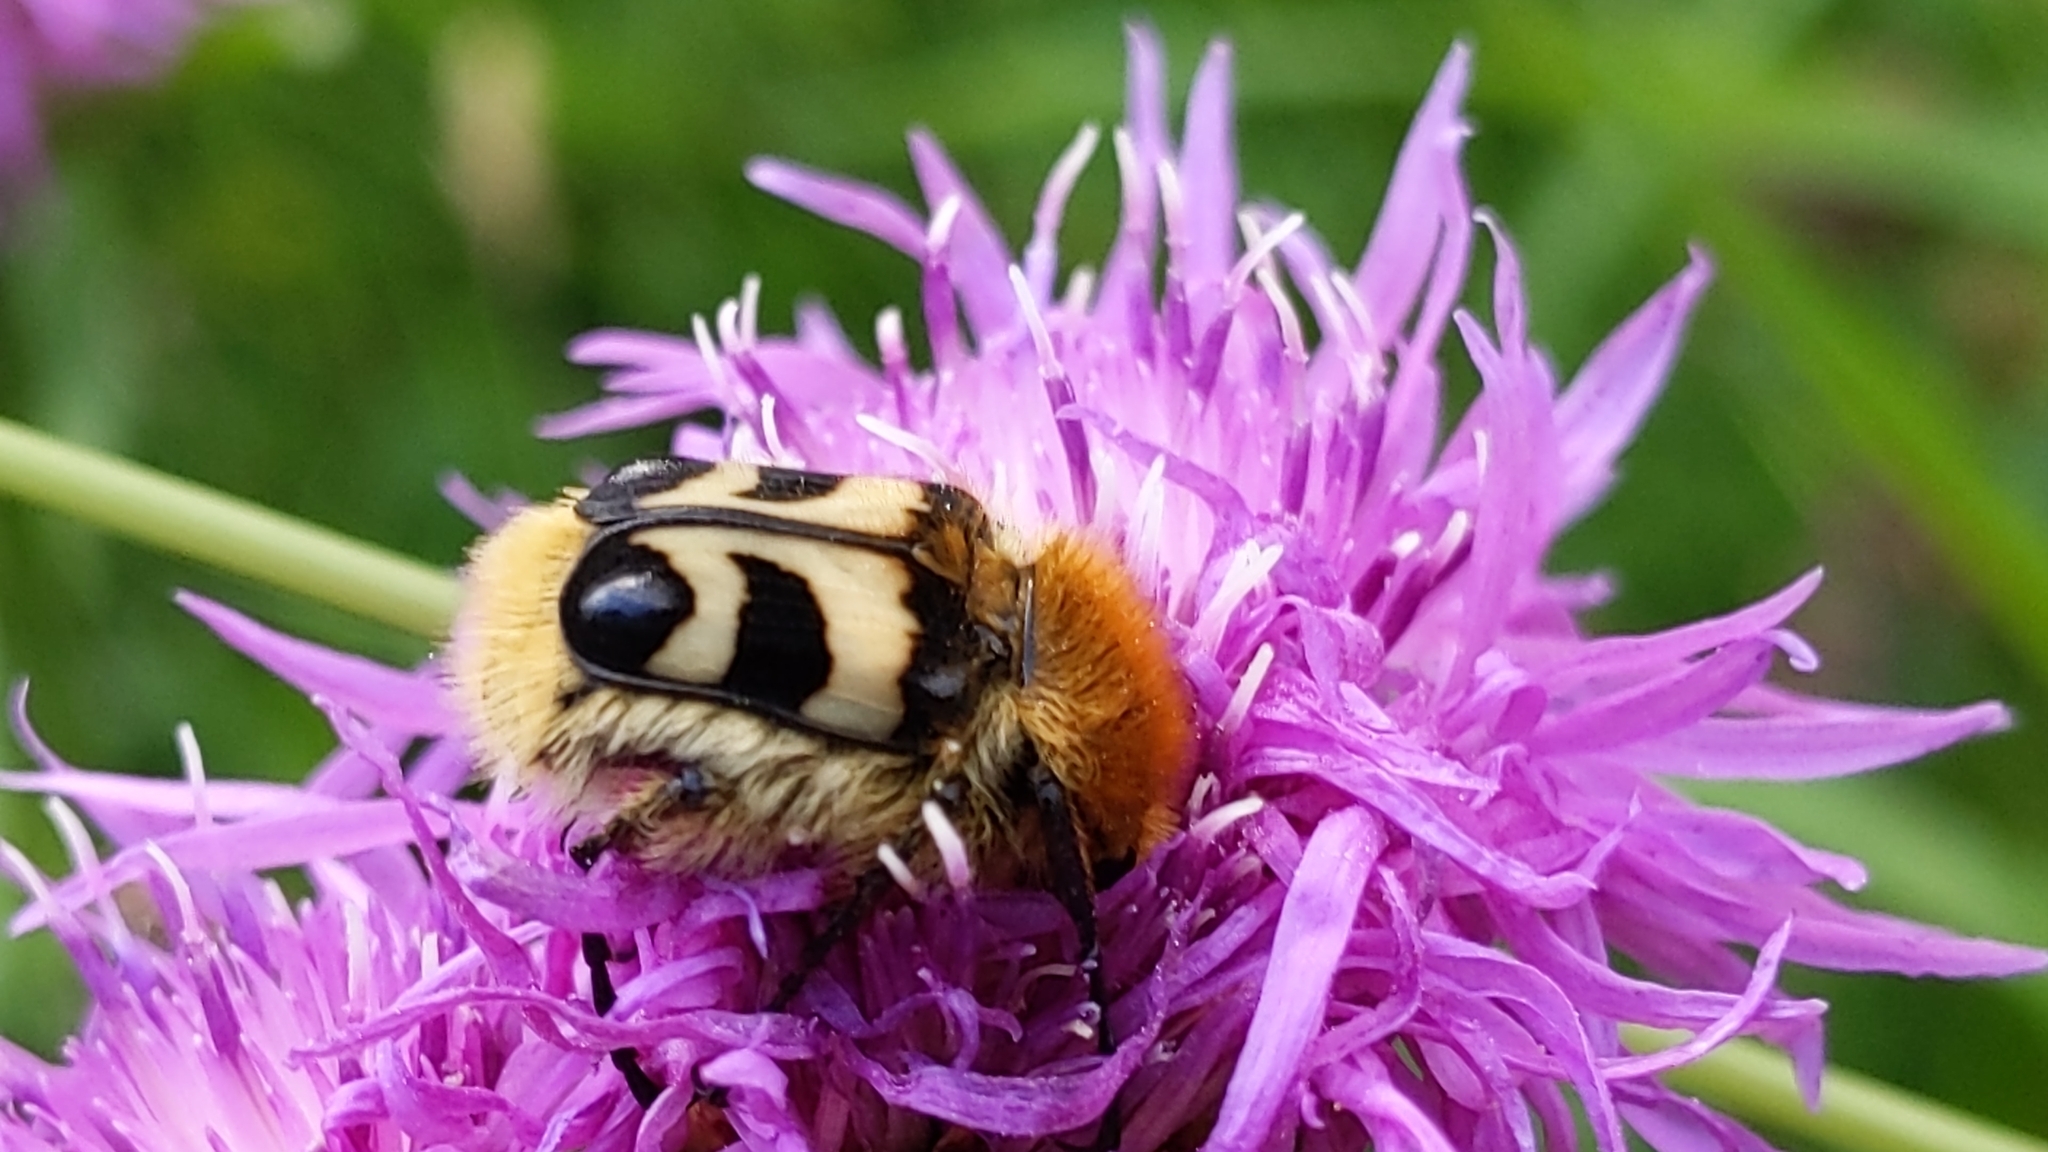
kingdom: Animalia
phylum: Arthropoda
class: Insecta
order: Coleoptera
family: Scarabaeidae
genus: Trichius
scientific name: Trichius fasciatus
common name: Bee beetle
